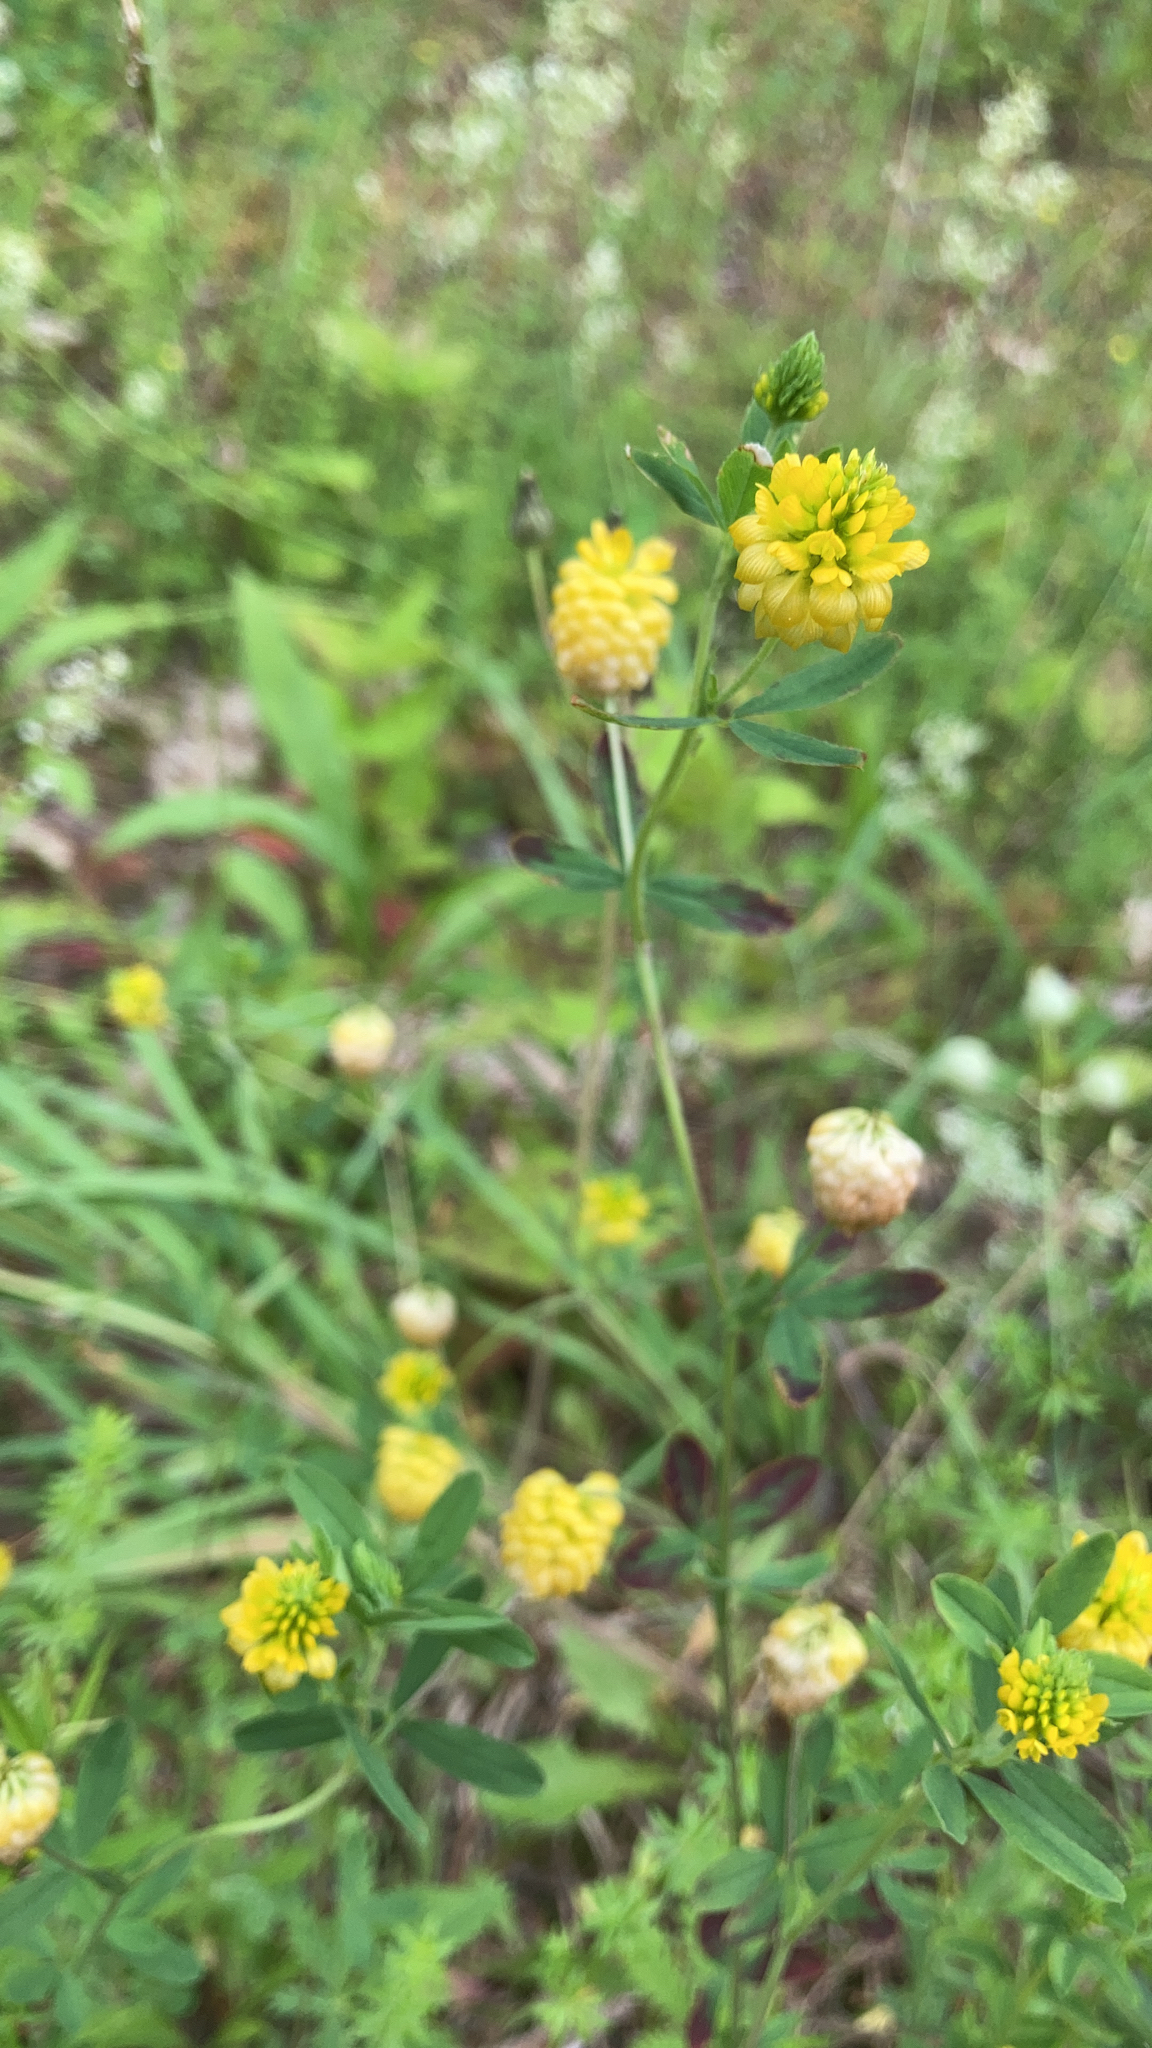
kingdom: Plantae
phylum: Tracheophyta
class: Magnoliopsida
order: Fabales
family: Fabaceae
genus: Trifolium
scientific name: Trifolium aureum
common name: Golden clover
